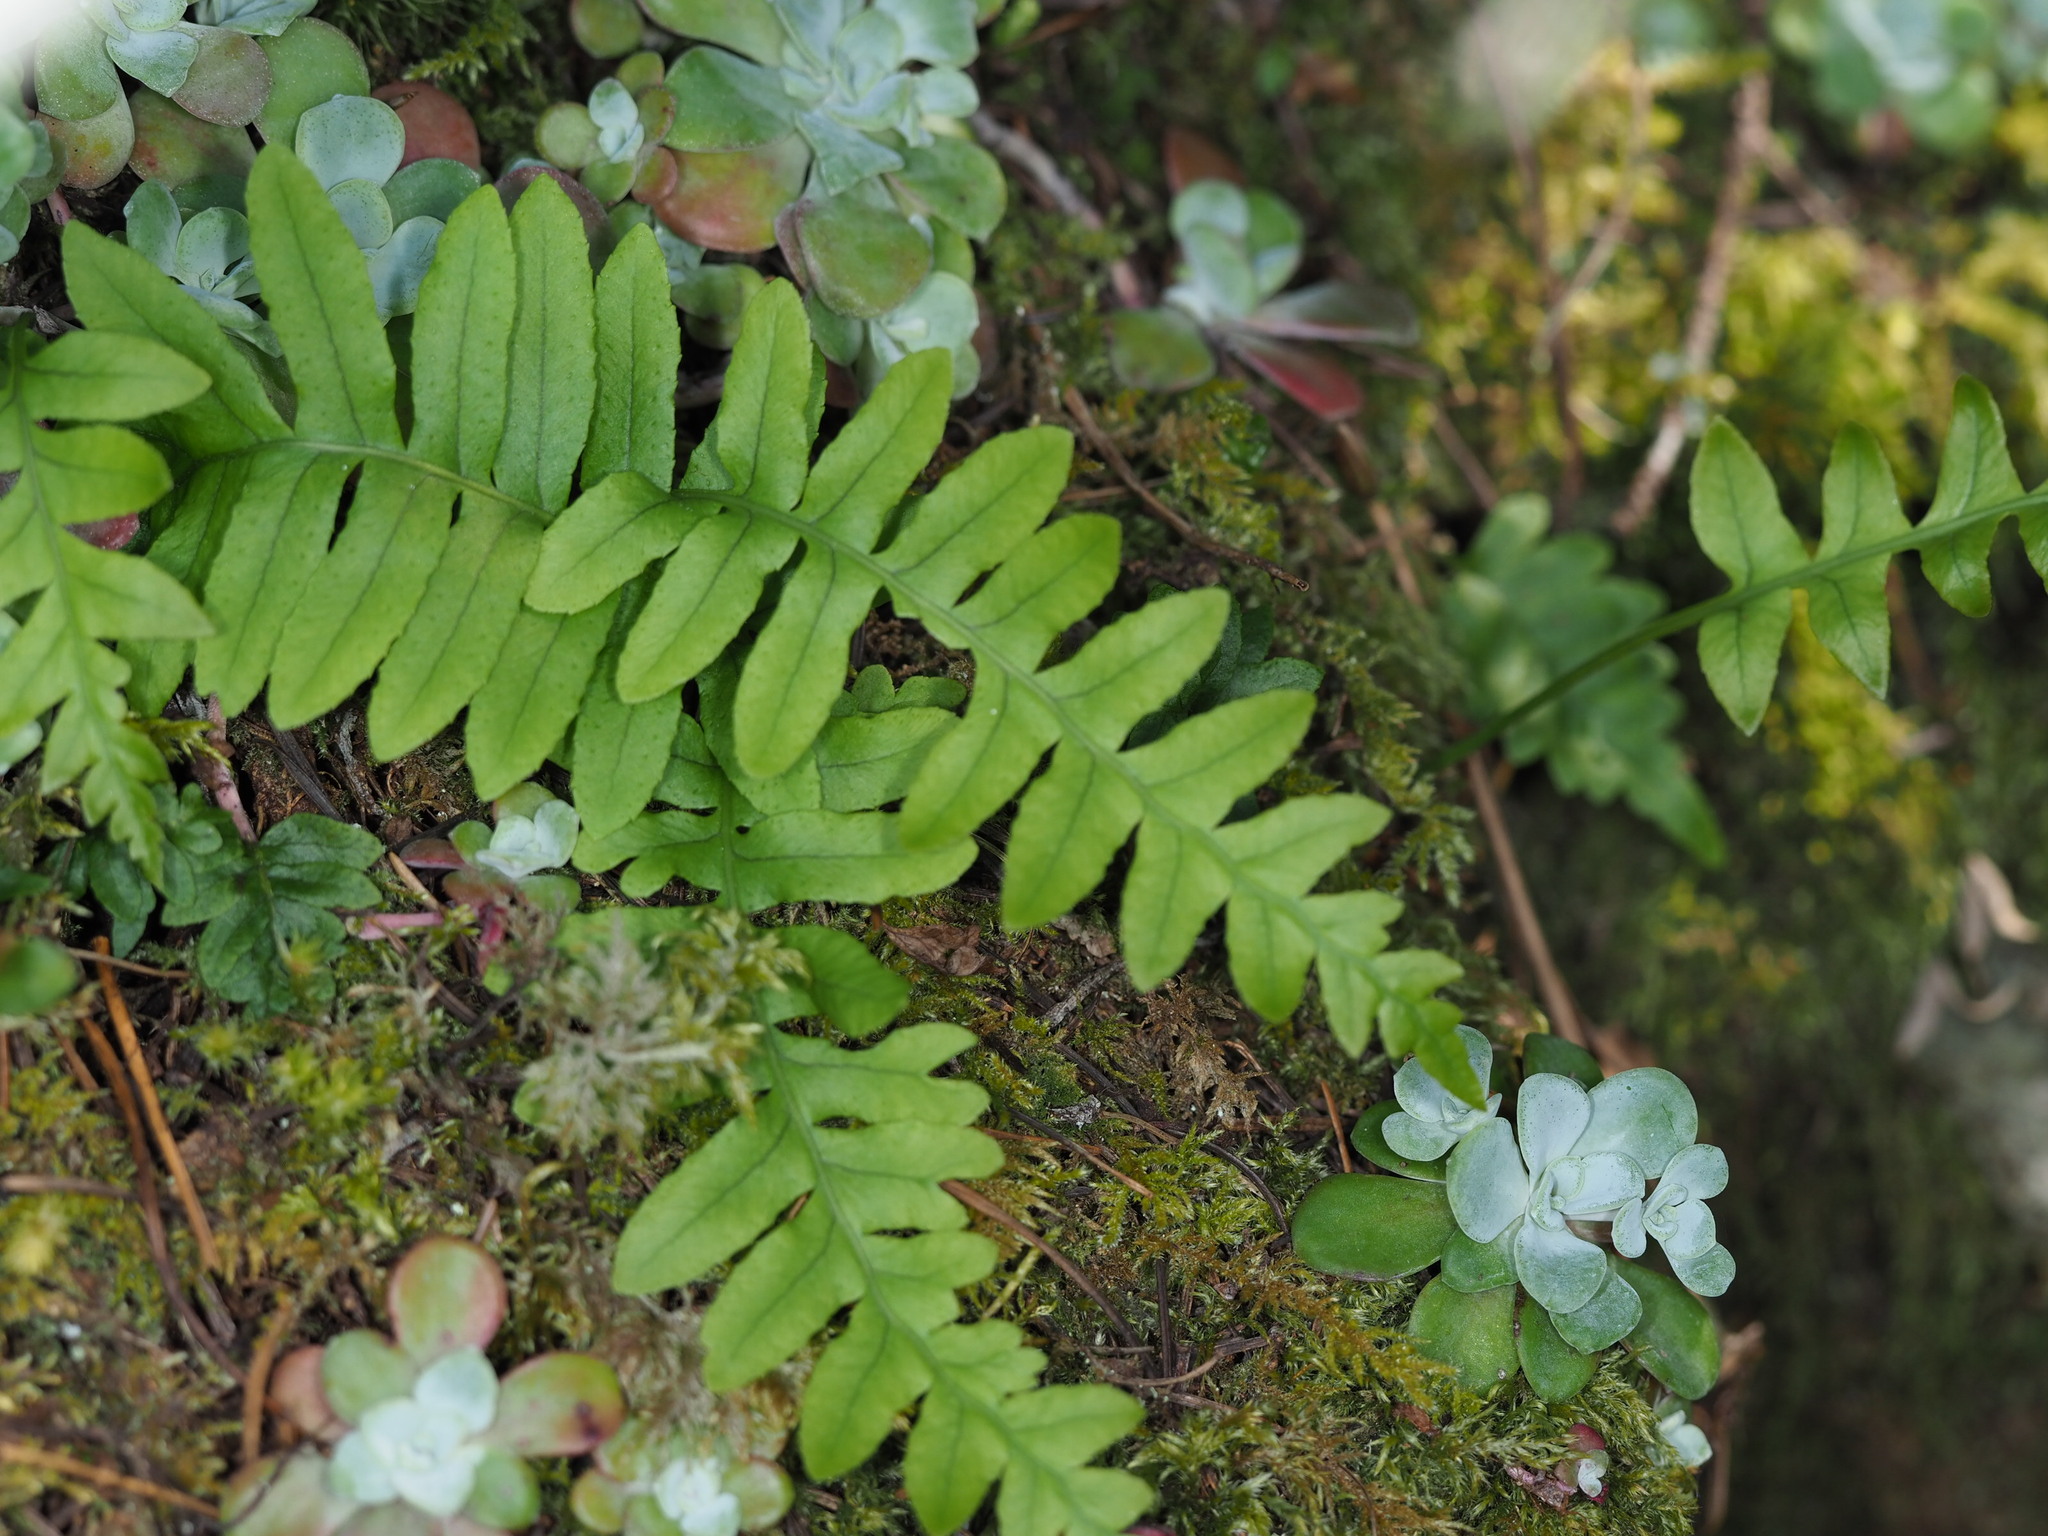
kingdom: Plantae
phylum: Tracheophyta
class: Polypodiopsida
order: Polypodiales
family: Polypodiaceae
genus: Polypodium
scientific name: Polypodium glycyrrhiza
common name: Licorice fern
